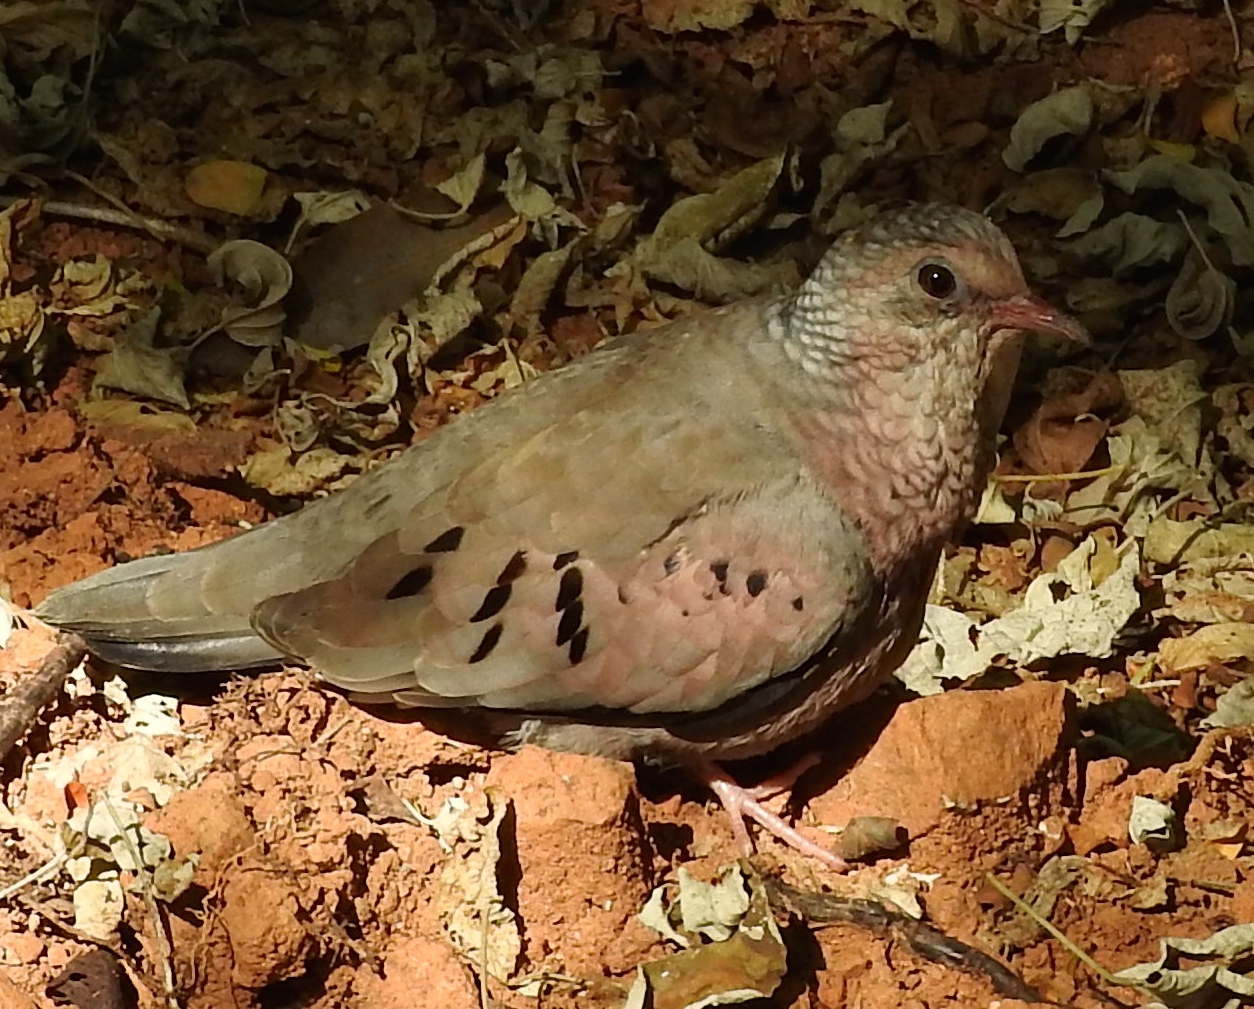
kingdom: Animalia
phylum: Chordata
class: Aves
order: Columbiformes
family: Columbidae
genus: Columbina
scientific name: Columbina passerina
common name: Common ground-dove
